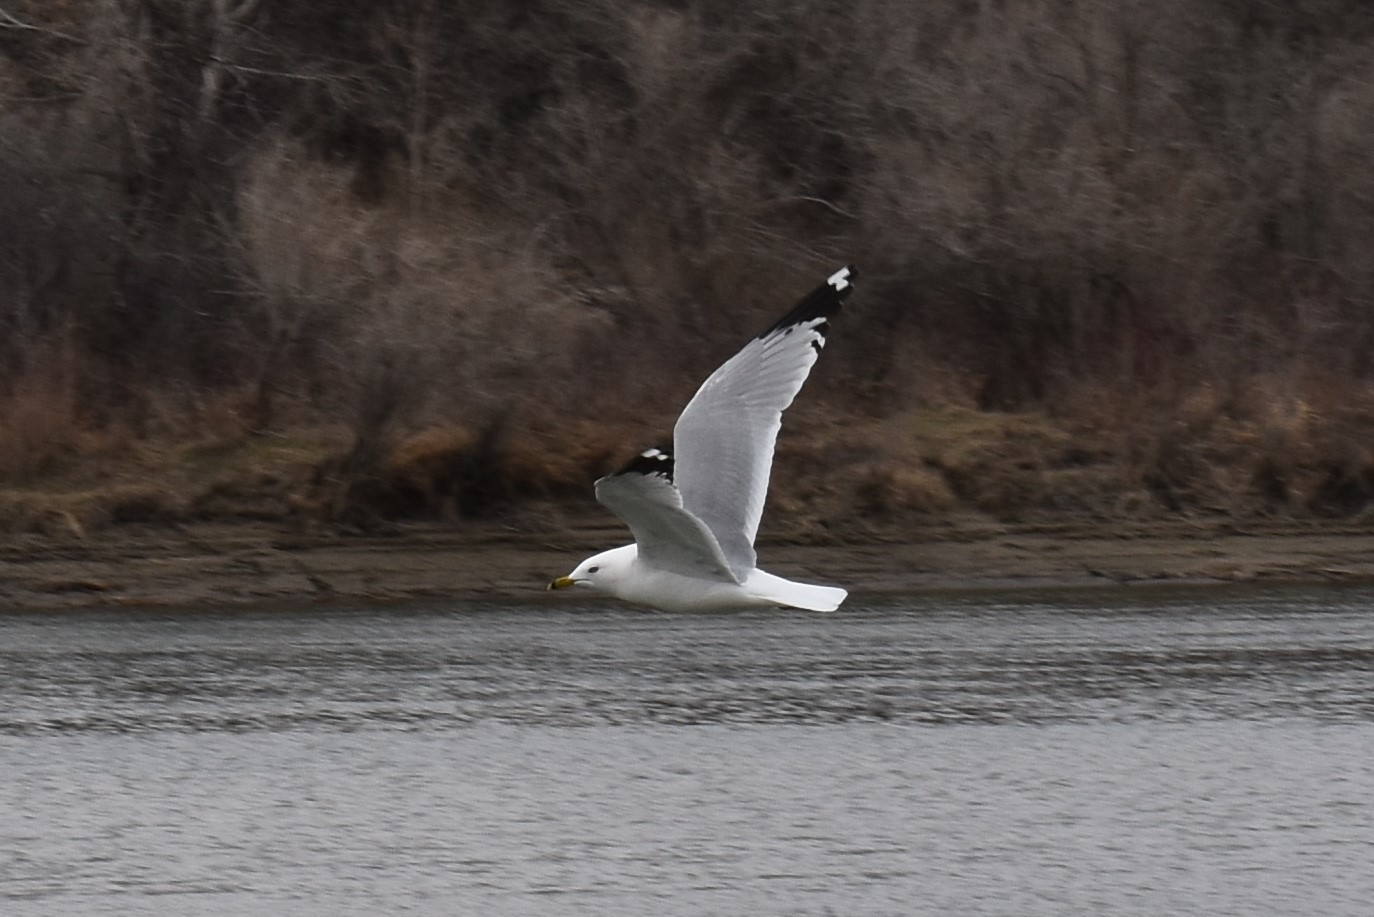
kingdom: Animalia
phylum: Chordata
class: Aves
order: Charadriiformes
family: Laridae
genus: Larus
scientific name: Larus delawarensis
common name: Ring-billed gull
